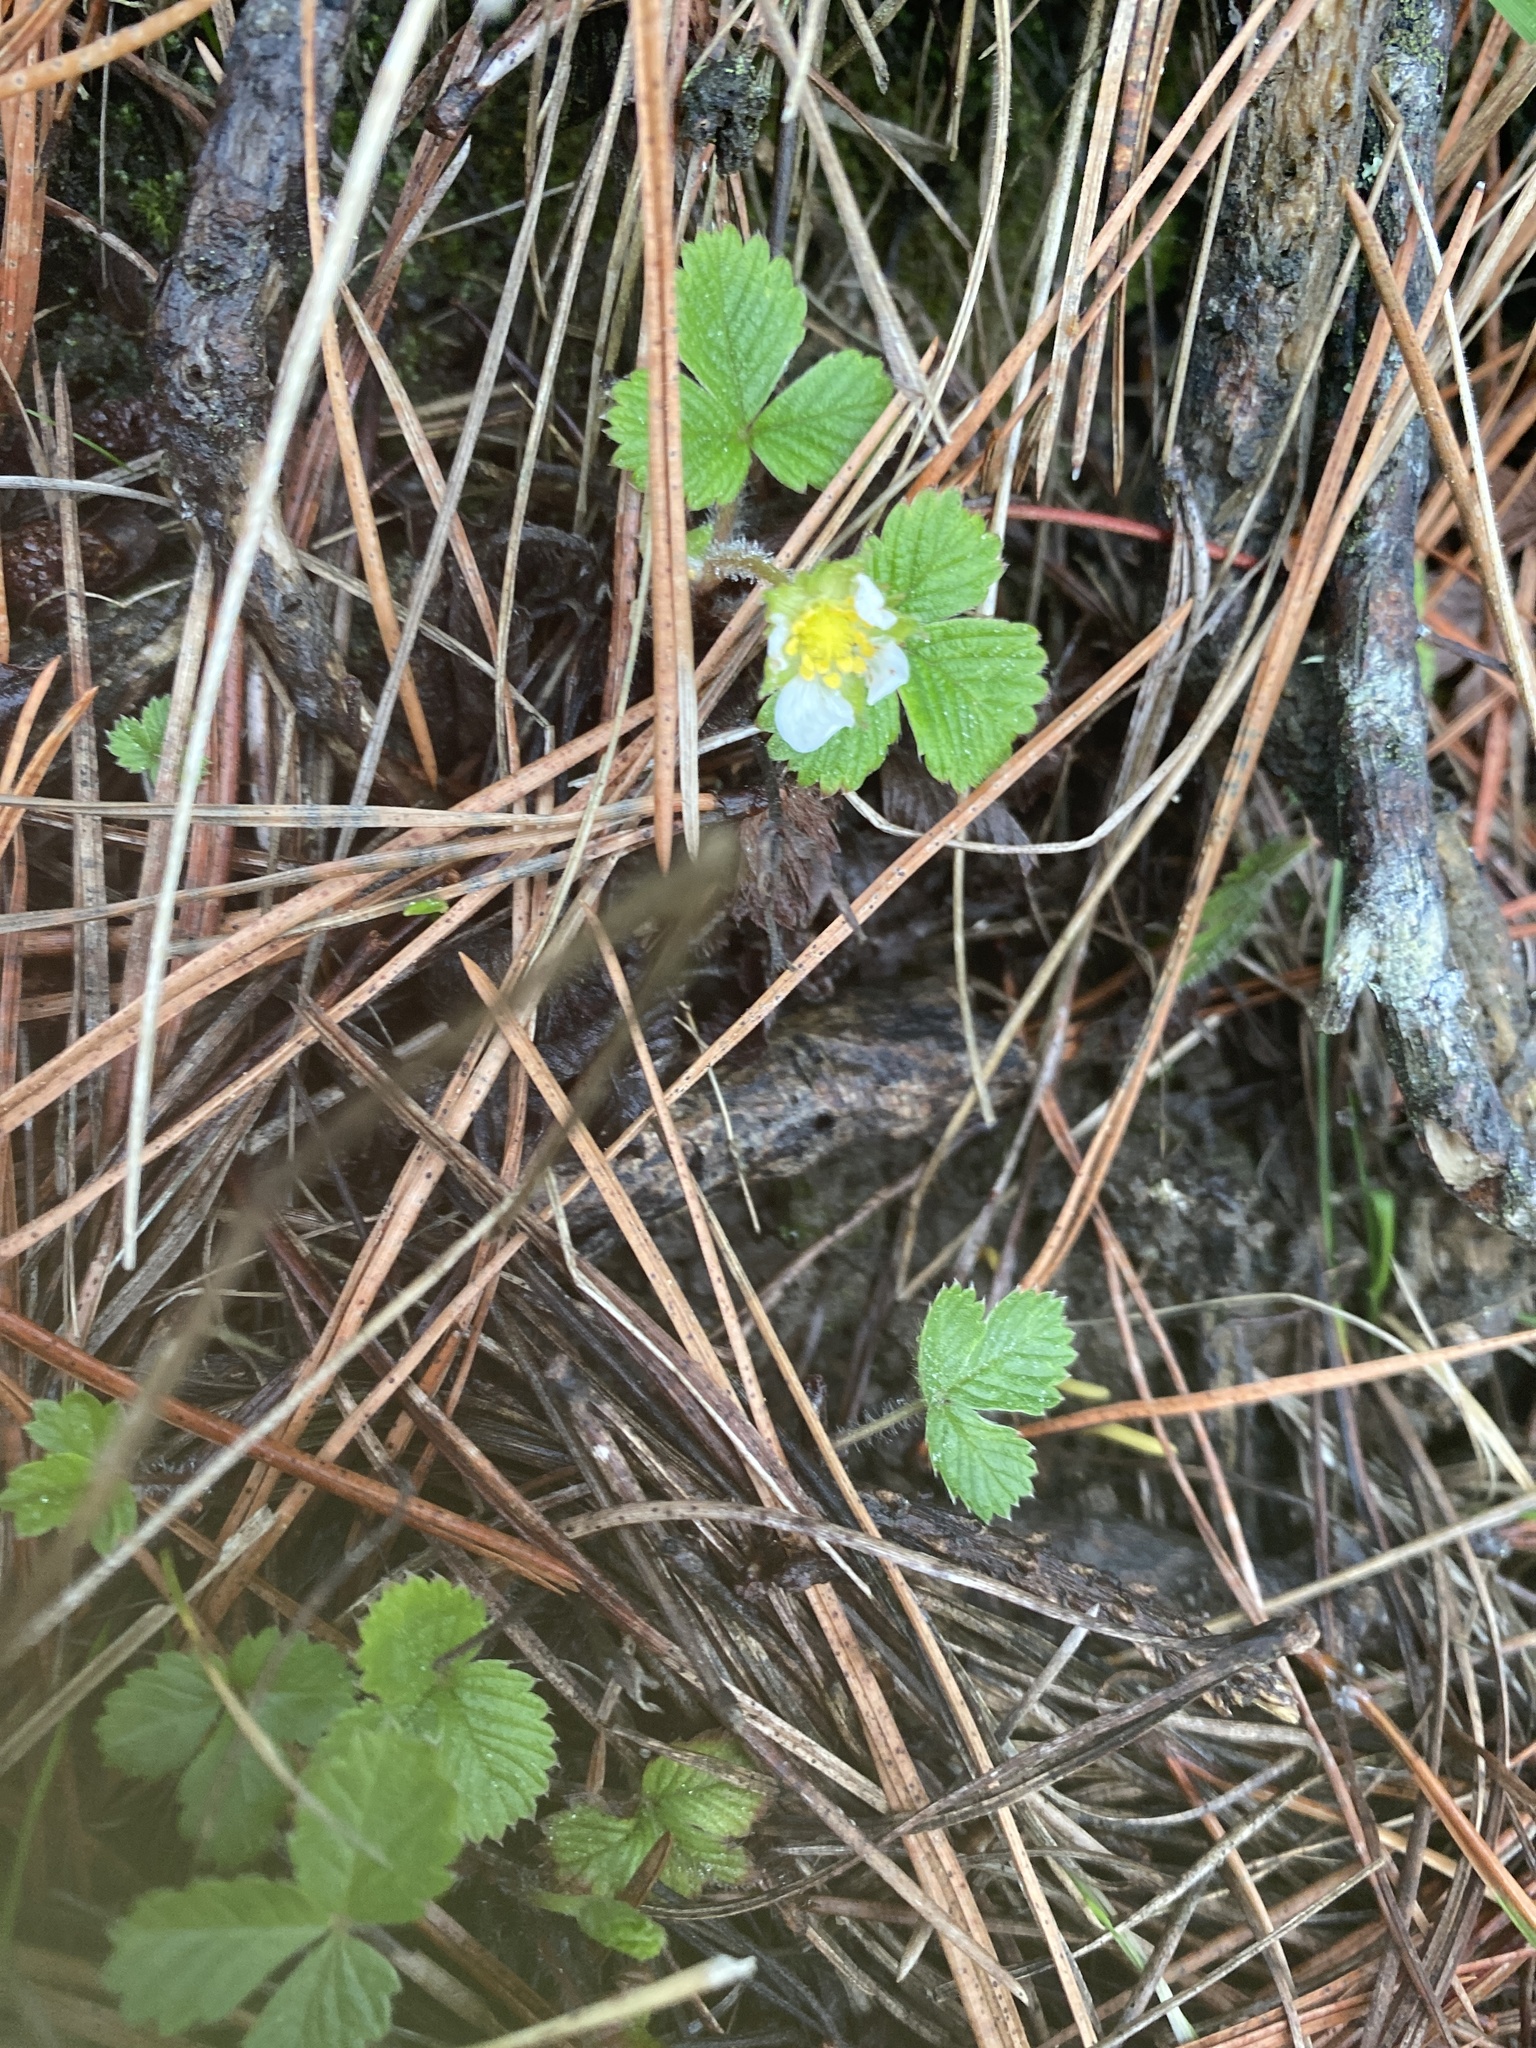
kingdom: Plantae
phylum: Tracheophyta
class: Magnoliopsida
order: Rosales
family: Rosaceae
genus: Fragaria
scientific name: Fragaria vesca
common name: Wild strawberry
